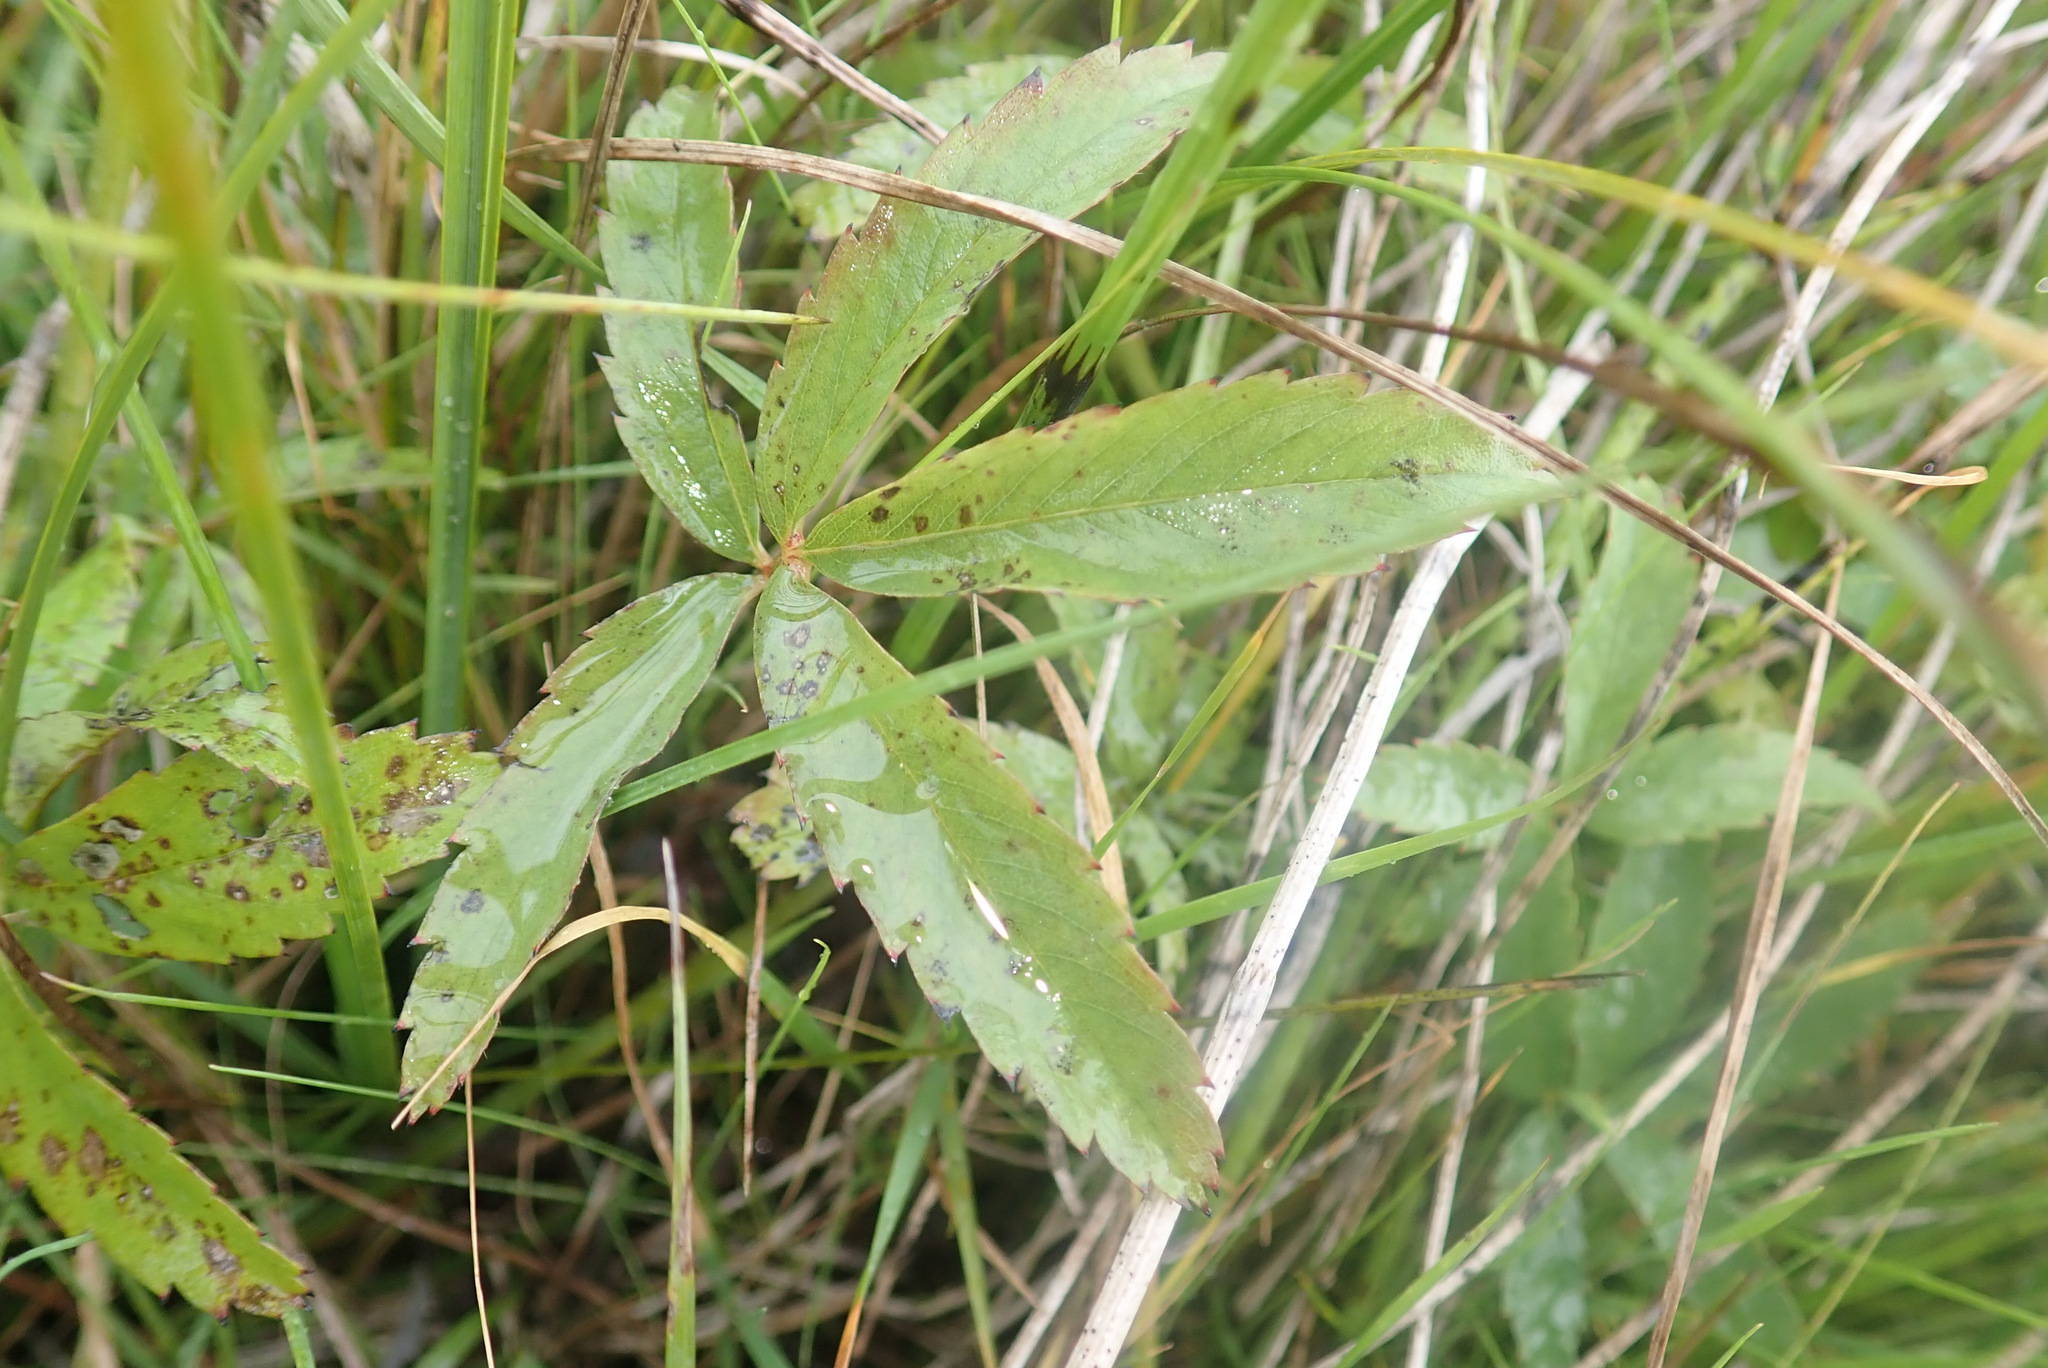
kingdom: Plantae
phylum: Tracheophyta
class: Magnoliopsida
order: Rosales
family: Rosaceae
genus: Comarum
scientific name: Comarum palustre
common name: Marsh cinquefoil
